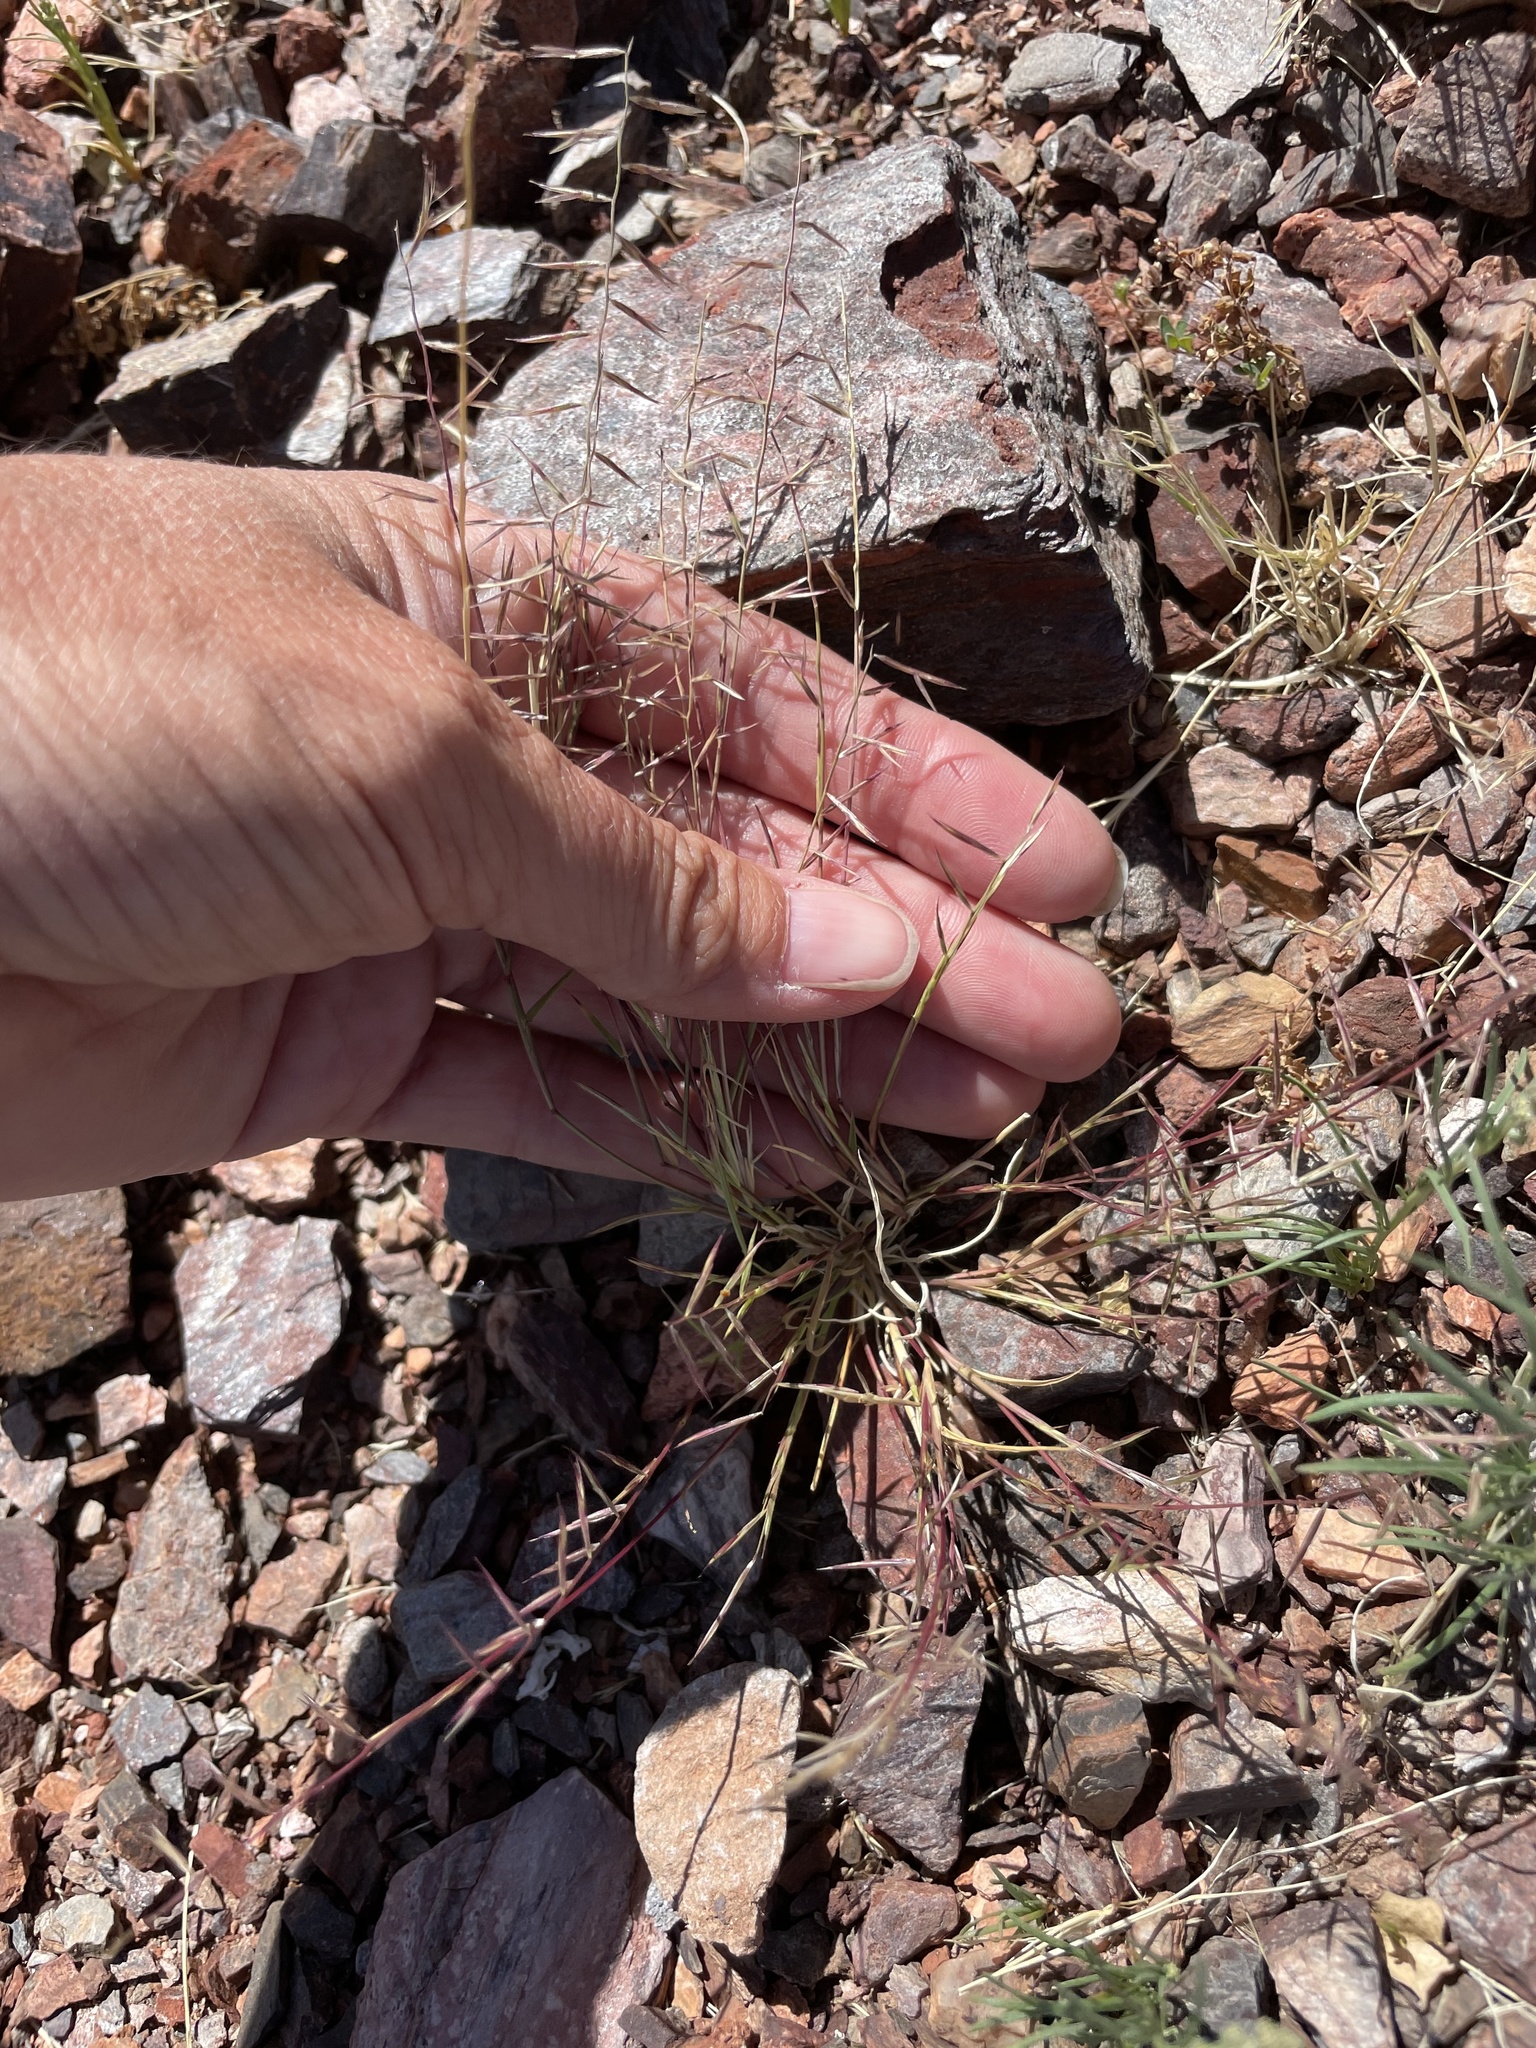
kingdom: Plantae
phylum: Tracheophyta
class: Liliopsida
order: Poales
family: Poaceae
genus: Bouteloua
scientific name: Bouteloua aristidoides
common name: Needle grama
